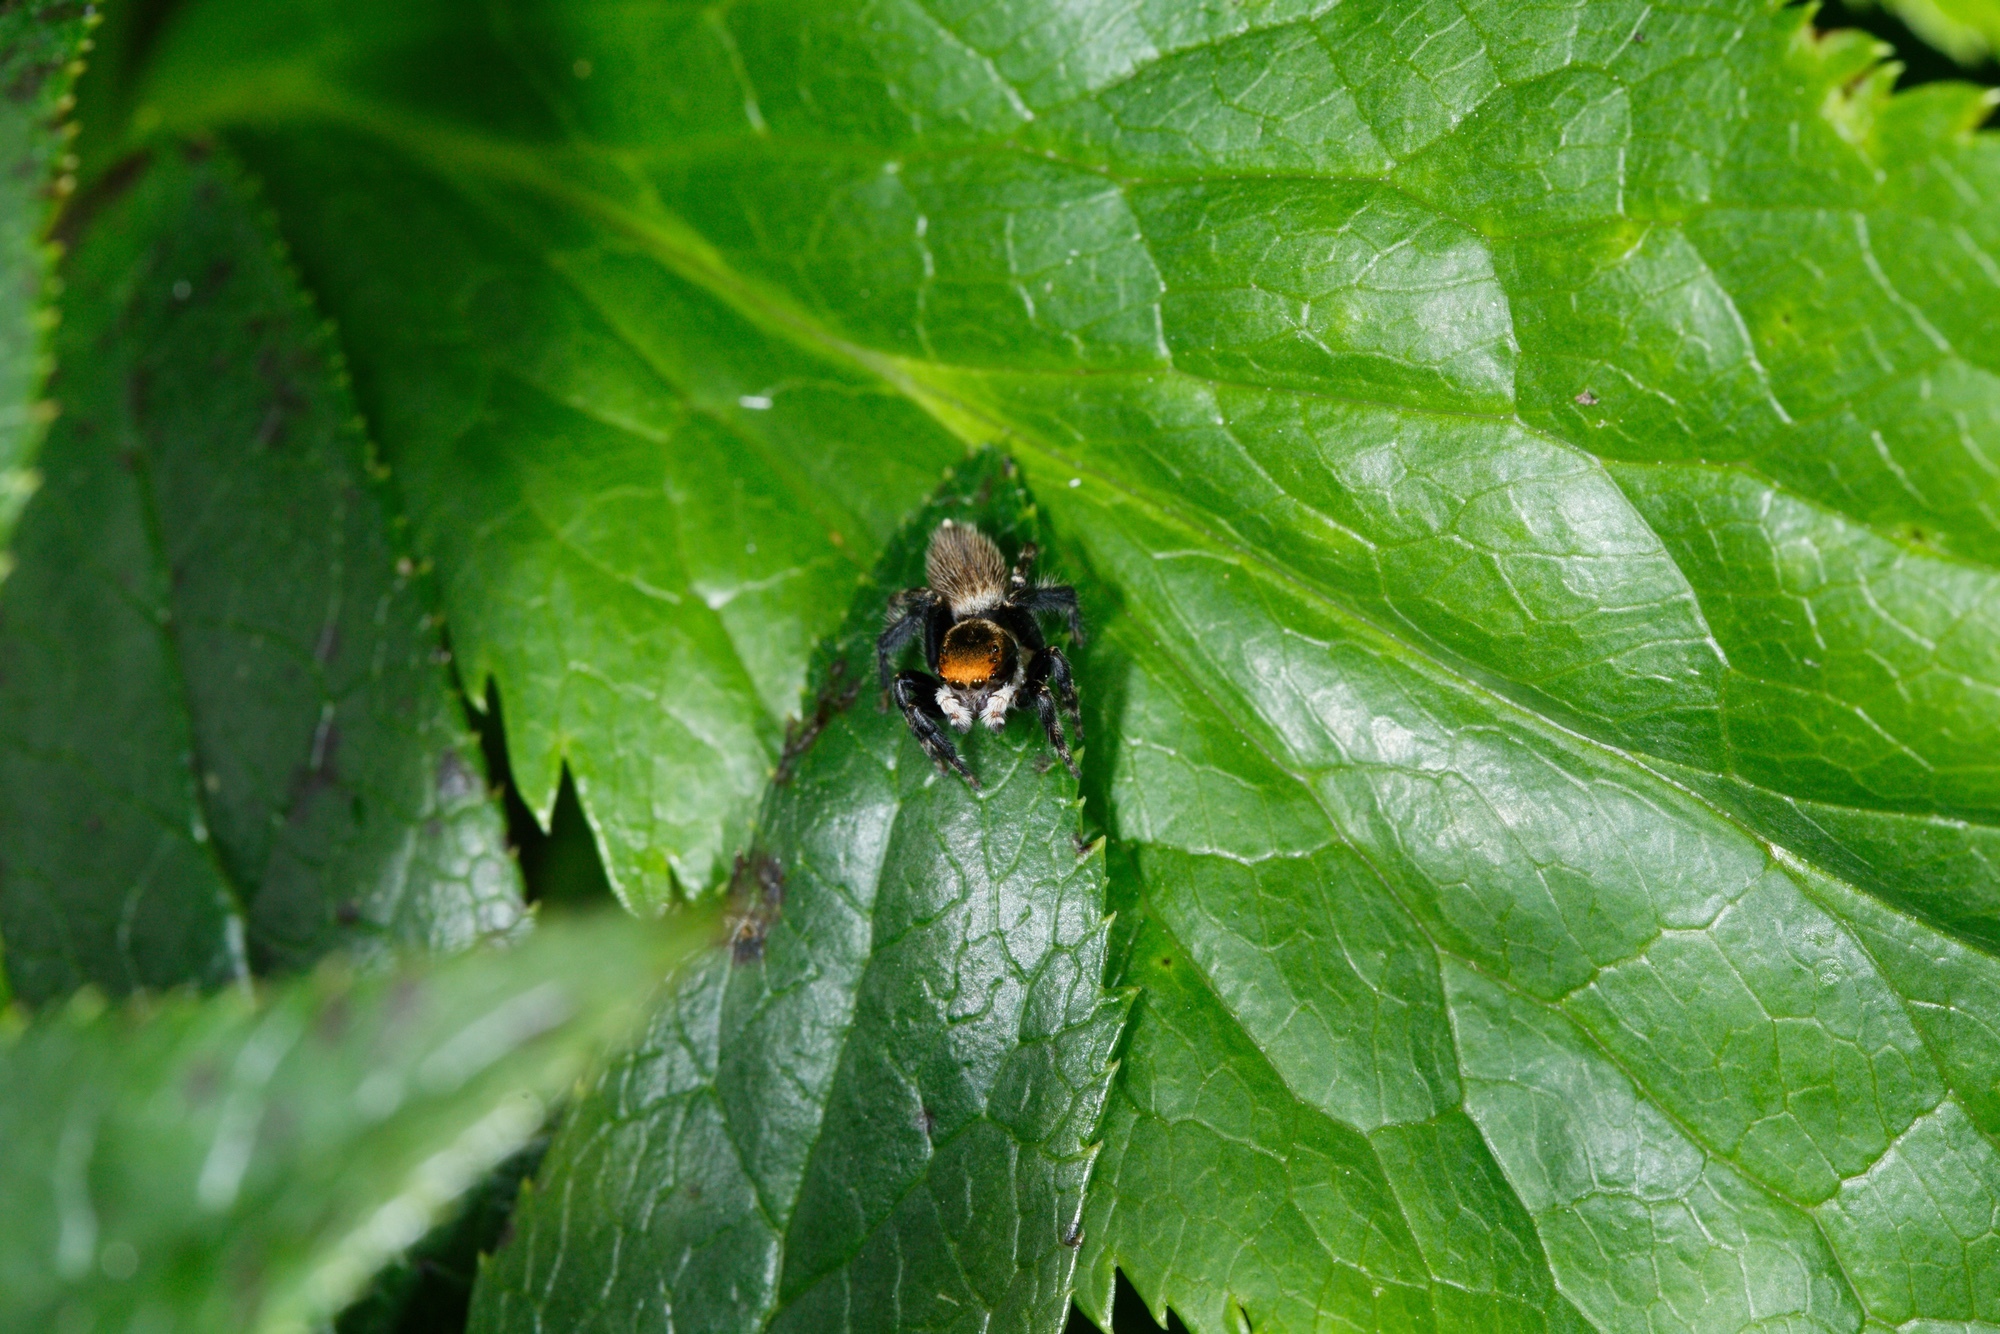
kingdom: Animalia
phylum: Arthropoda
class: Arachnida
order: Araneae
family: Salticidae
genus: Maratus
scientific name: Maratus griseus
